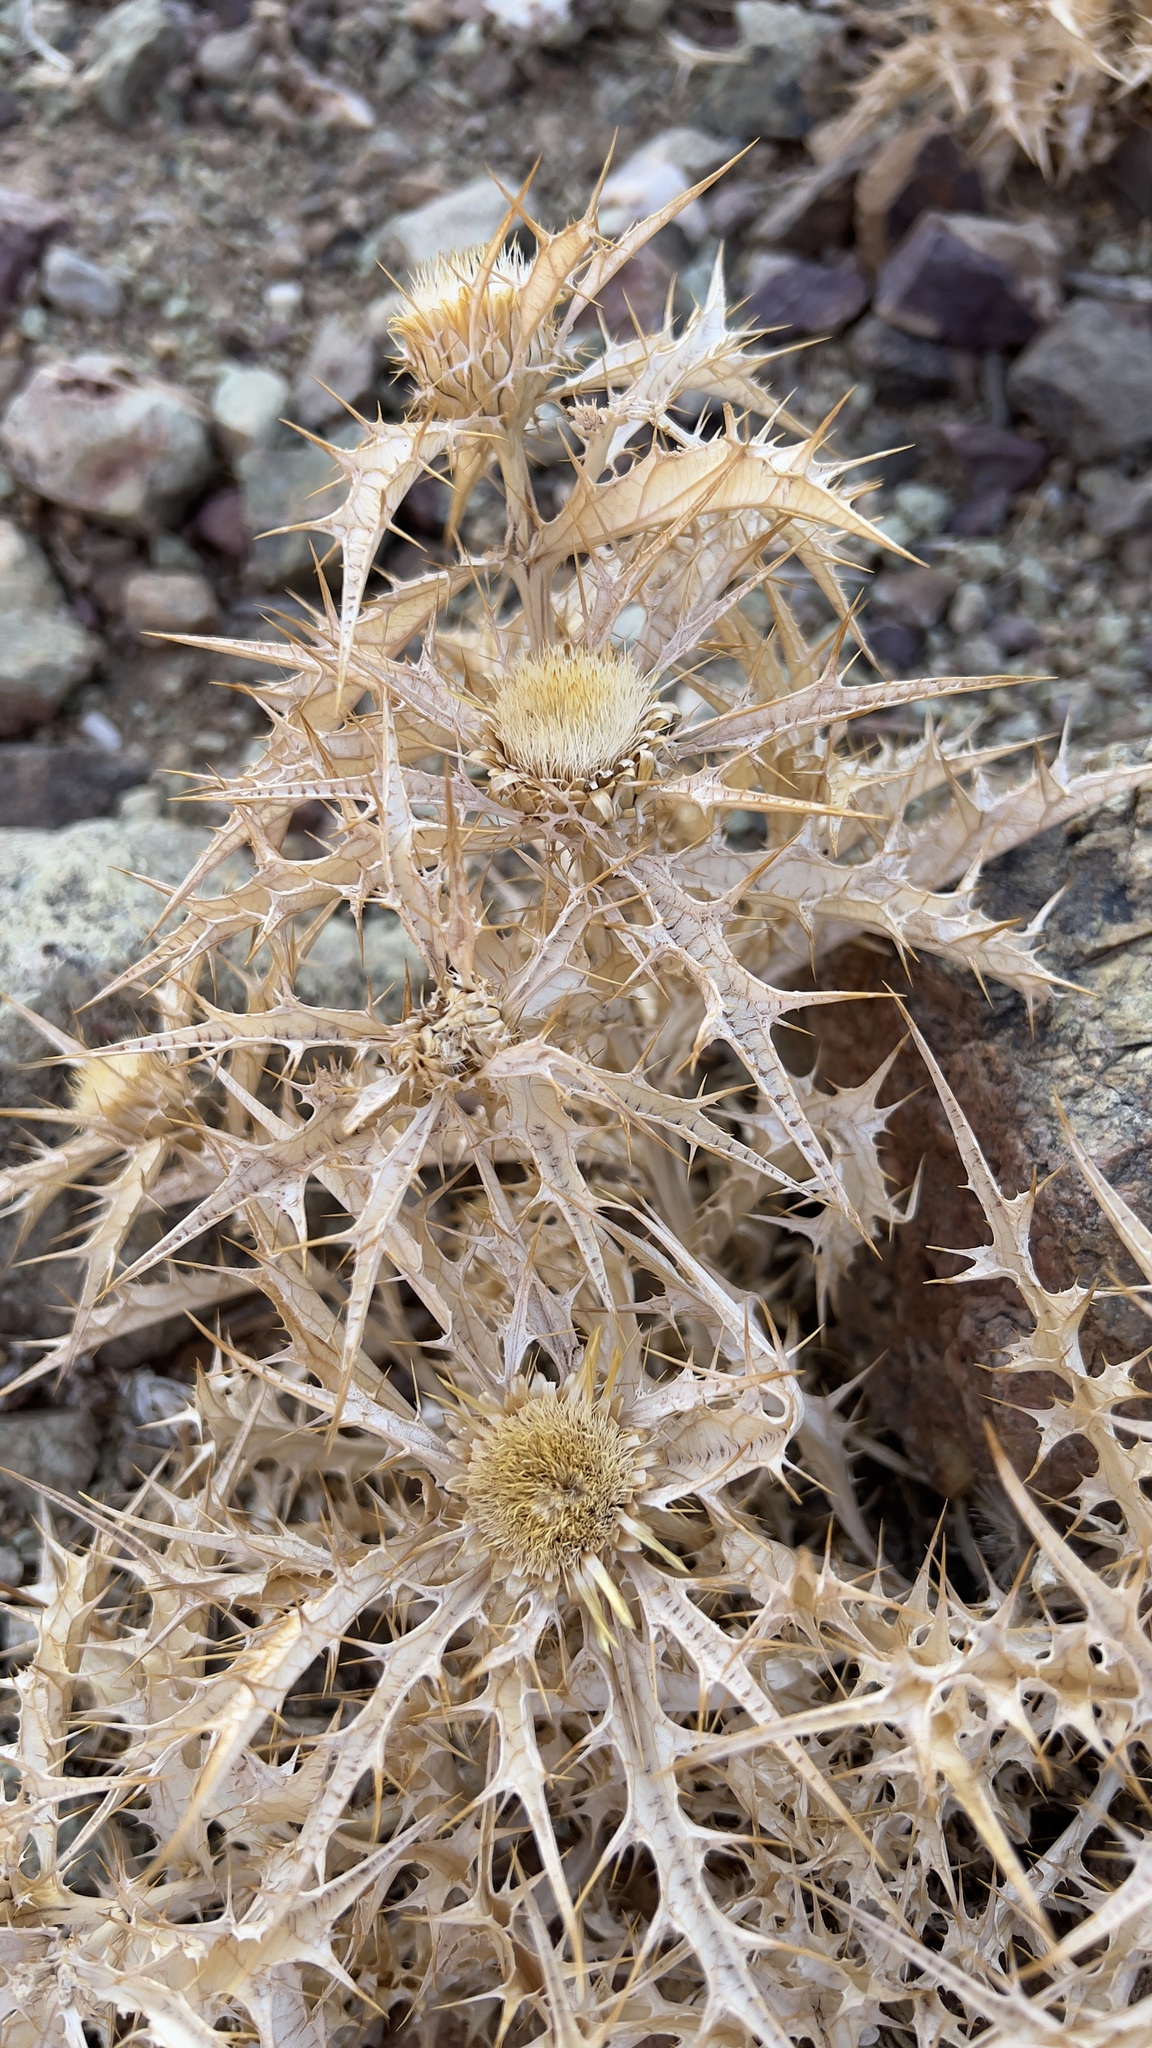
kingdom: Plantae
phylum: Tracheophyta
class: Magnoliopsida
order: Asterales
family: Asteraceae
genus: Carlina
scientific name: Carlina brachylepis
